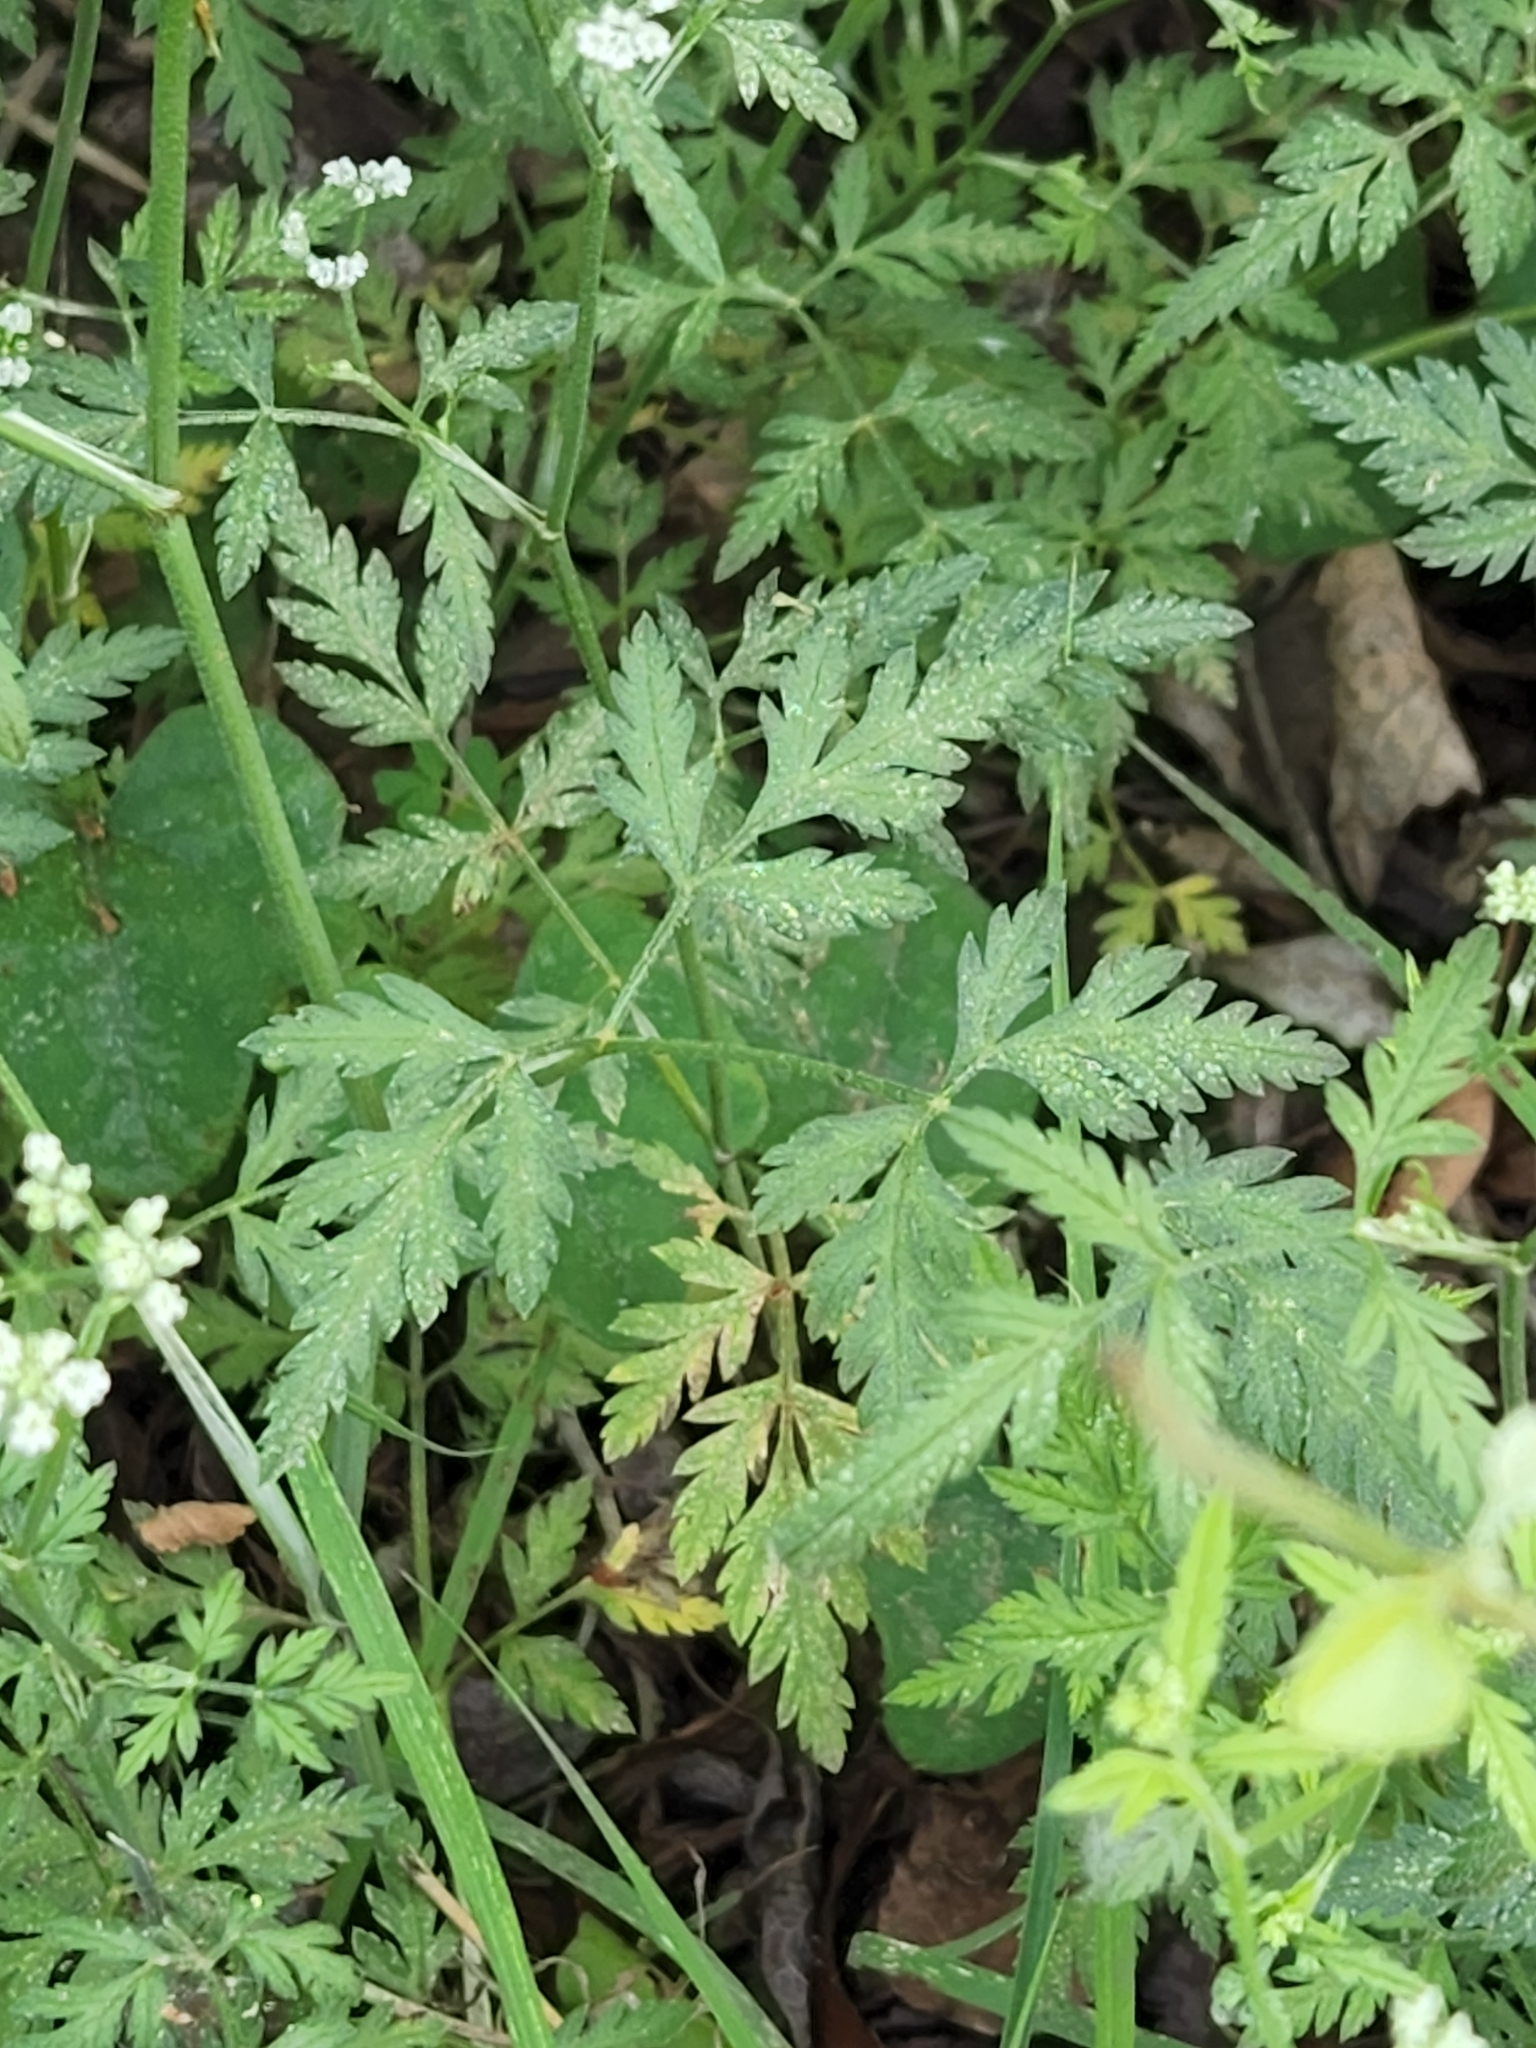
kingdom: Plantae
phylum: Tracheophyta
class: Magnoliopsida
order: Apiales
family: Apiaceae
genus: Torilis
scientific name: Torilis arvensis
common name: Spreading hedge-parsley
